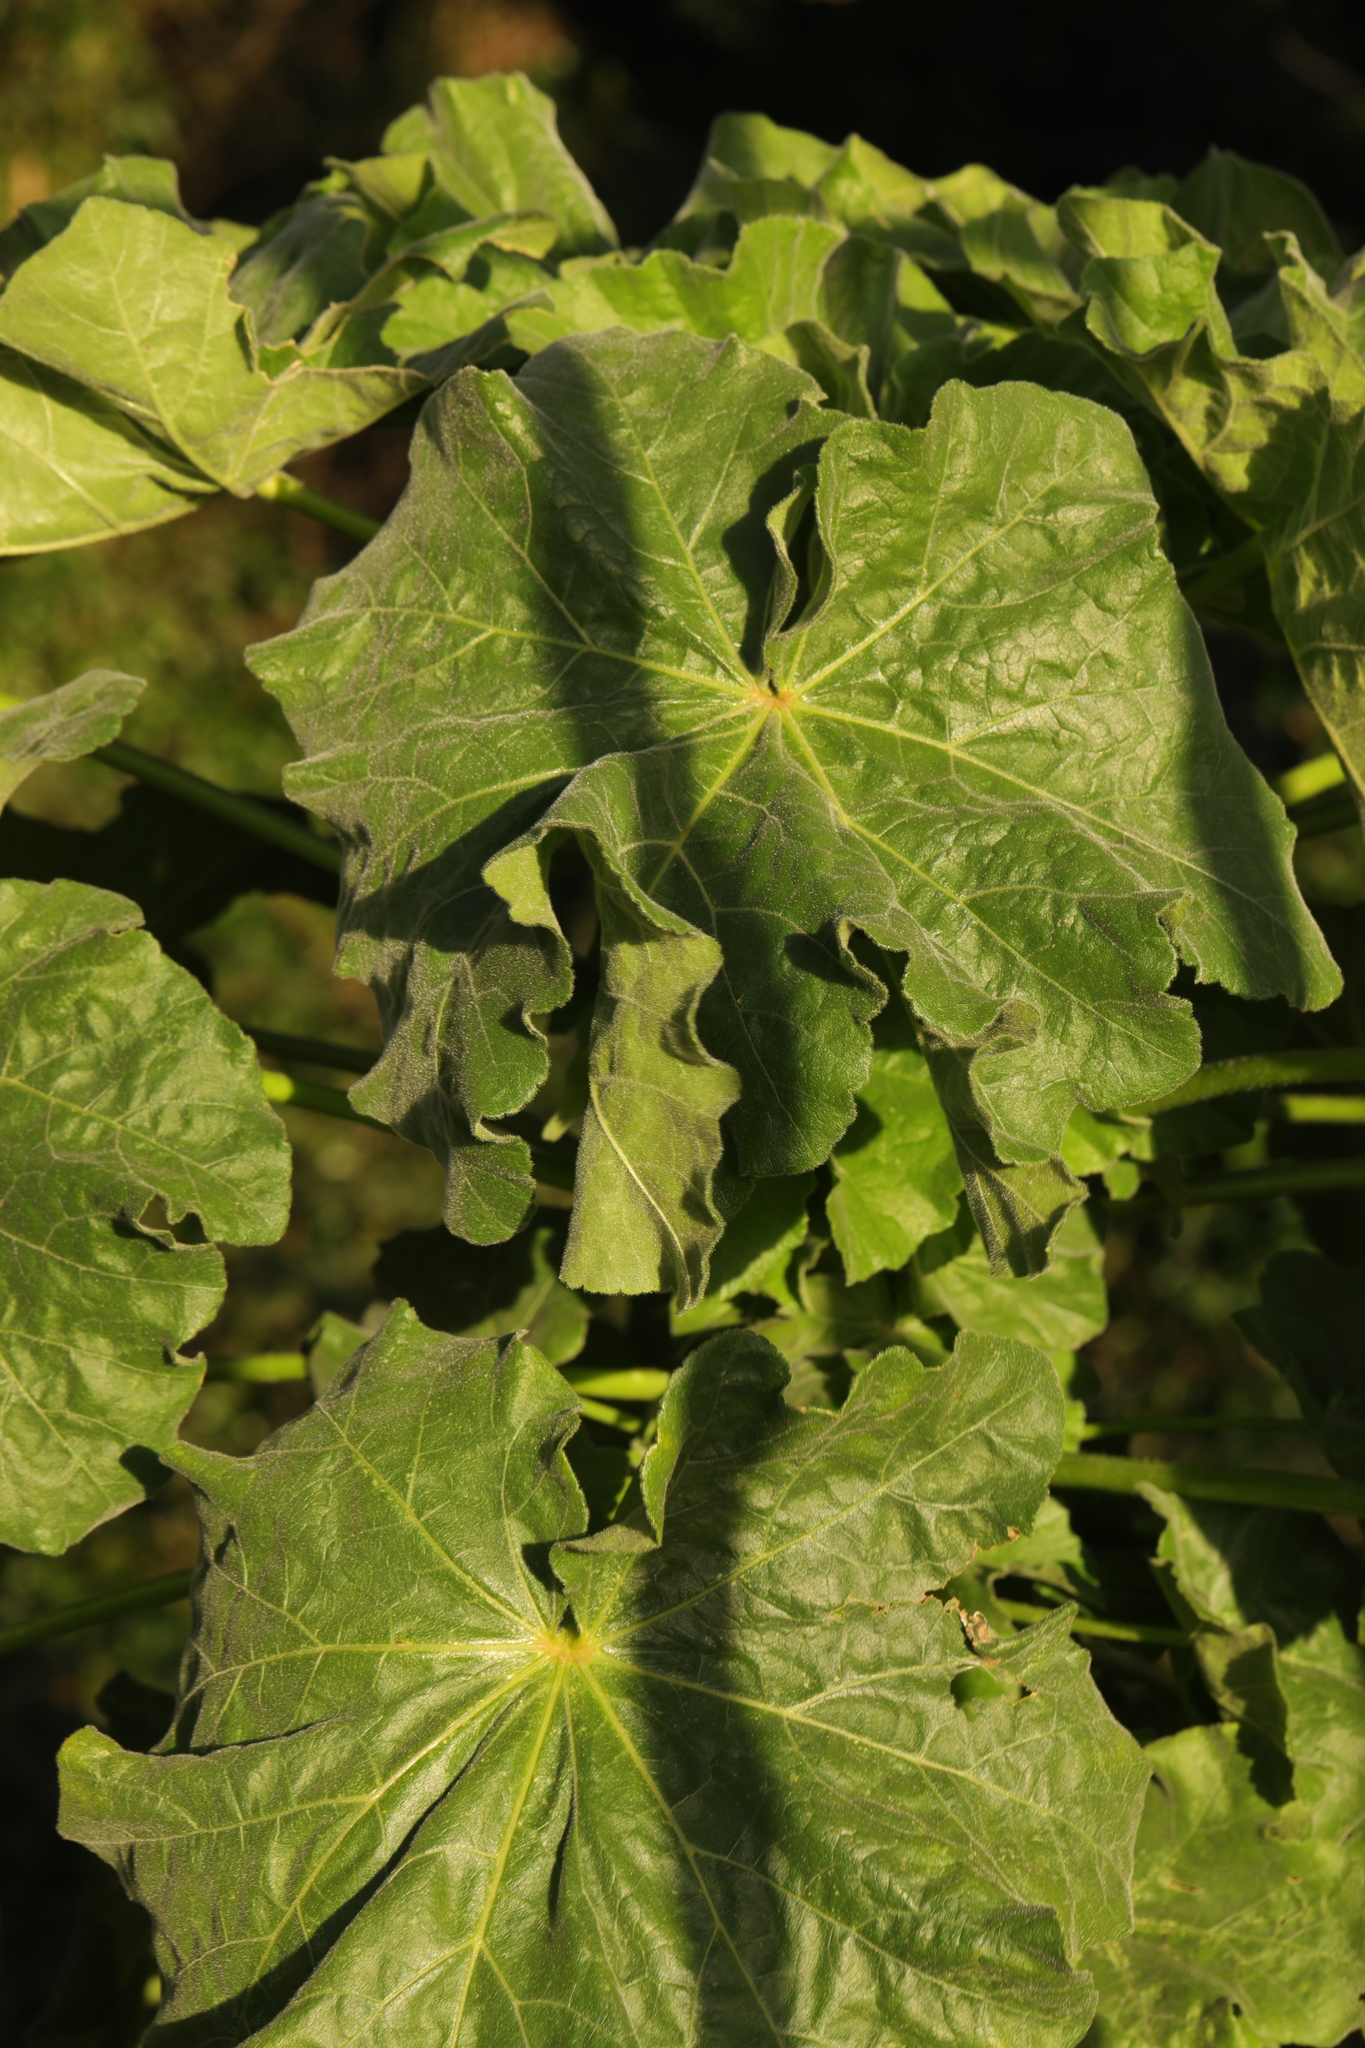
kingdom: Plantae
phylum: Tracheophyta
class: Magnoliopsida
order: Malvales
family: Malvaceae
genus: Malva
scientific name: Malva arborea
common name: Tree mallow
